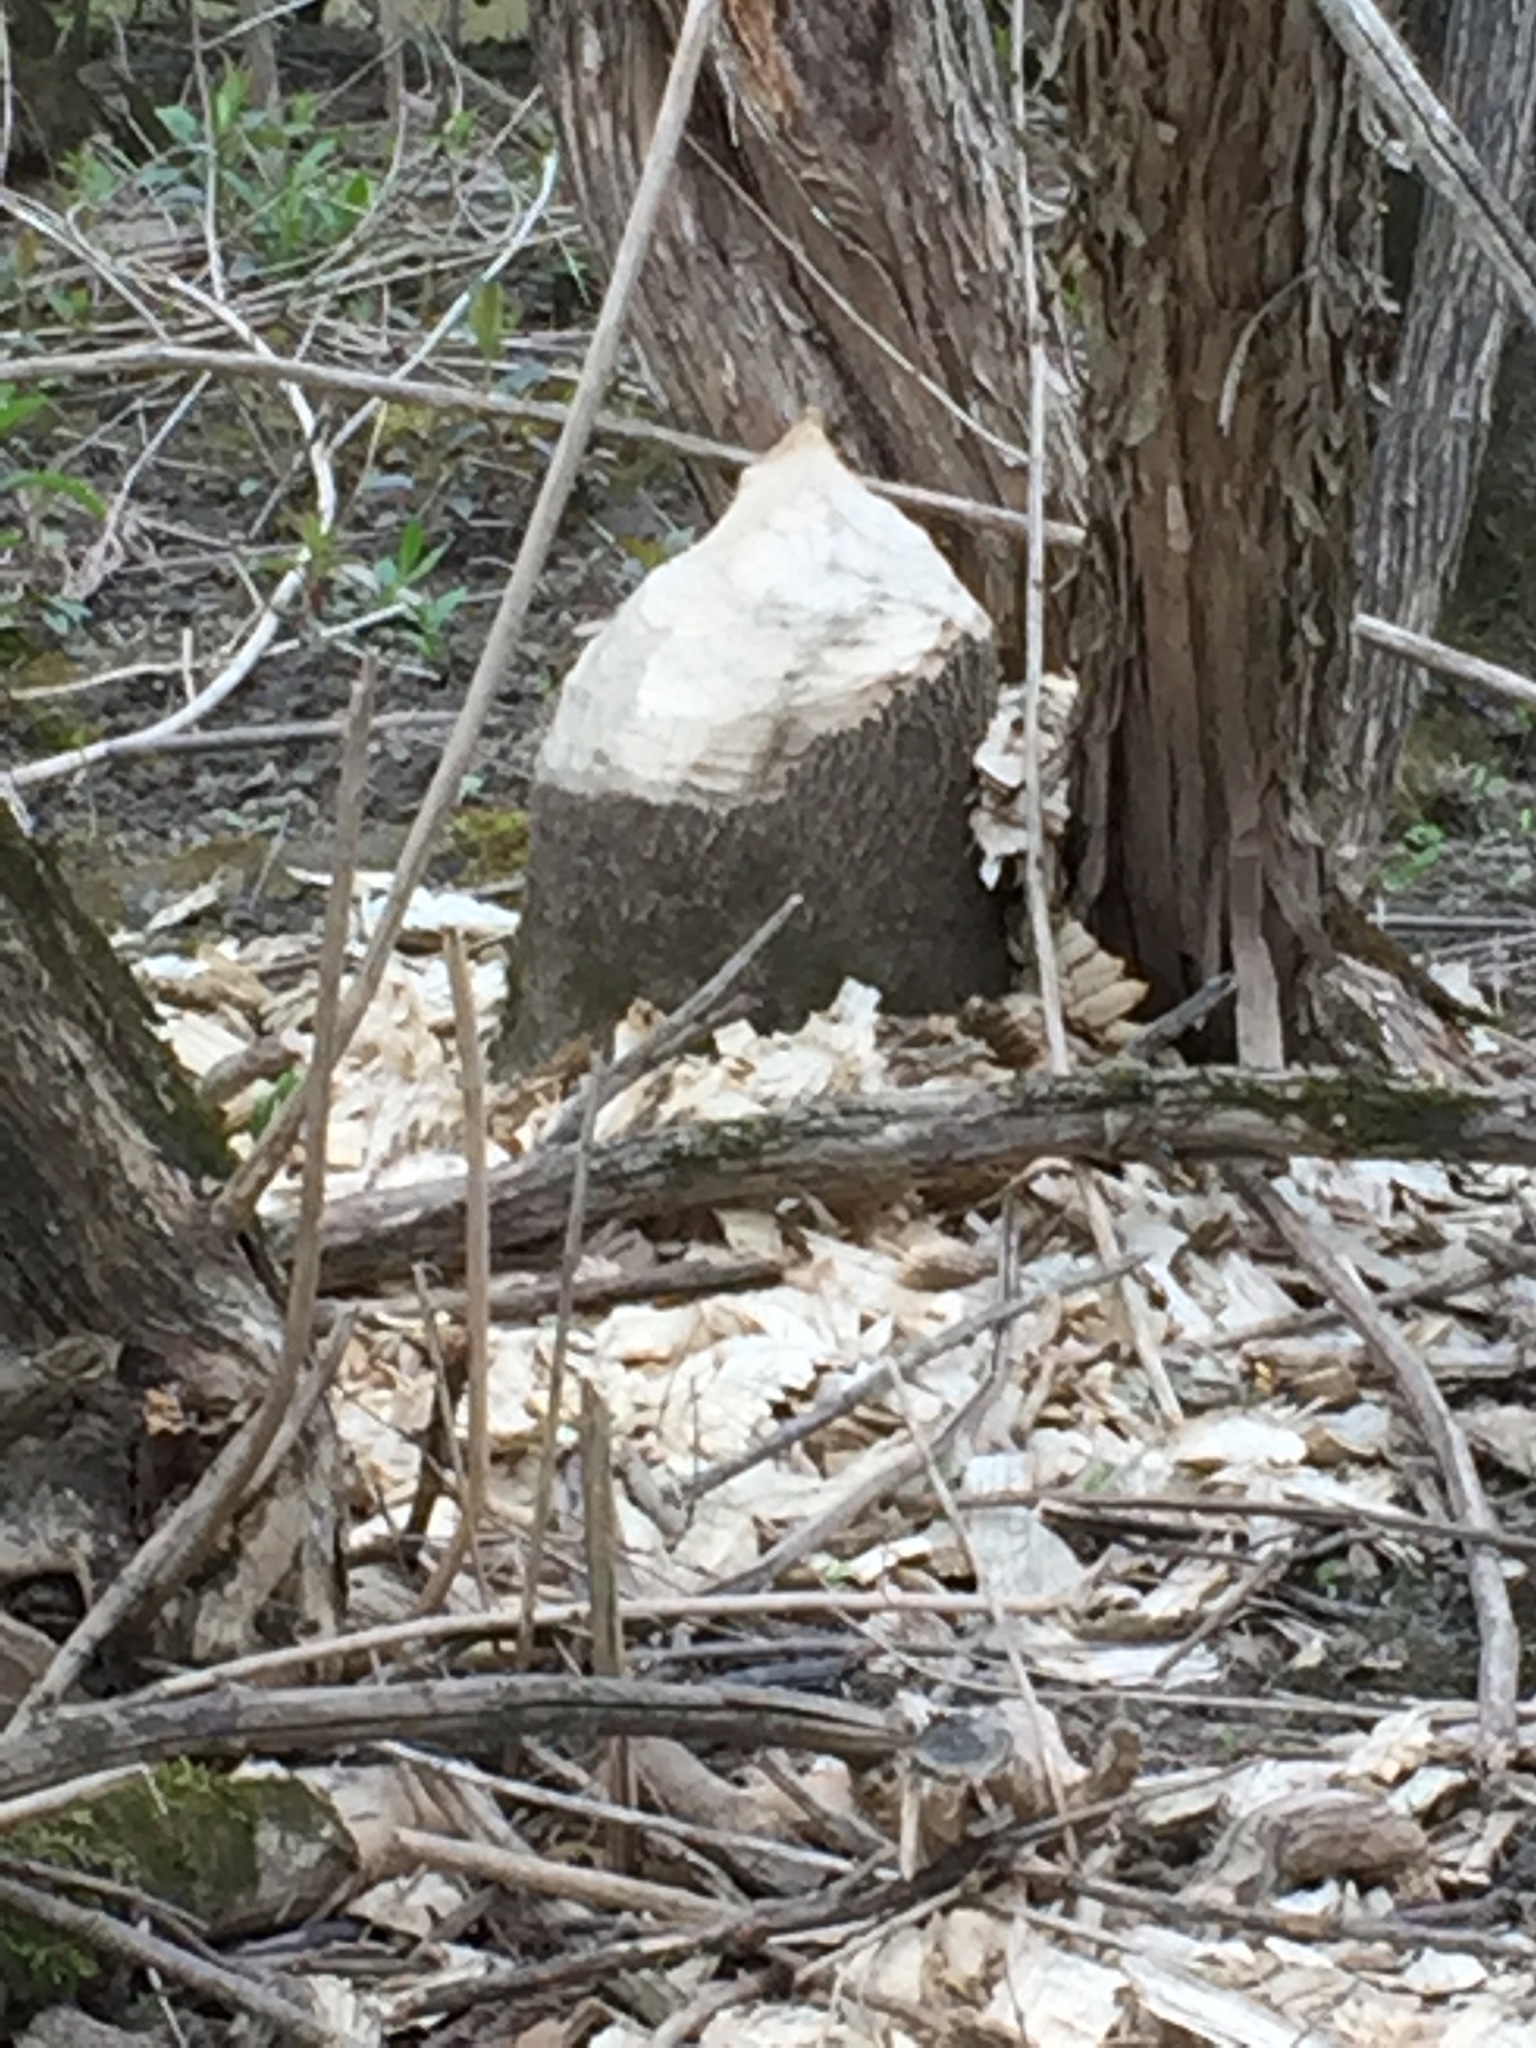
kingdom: Animalia
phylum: Chordata
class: Mammalia
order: Rodentia
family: Castoridae
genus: Castor
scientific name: Castor canadensis
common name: American beaver
